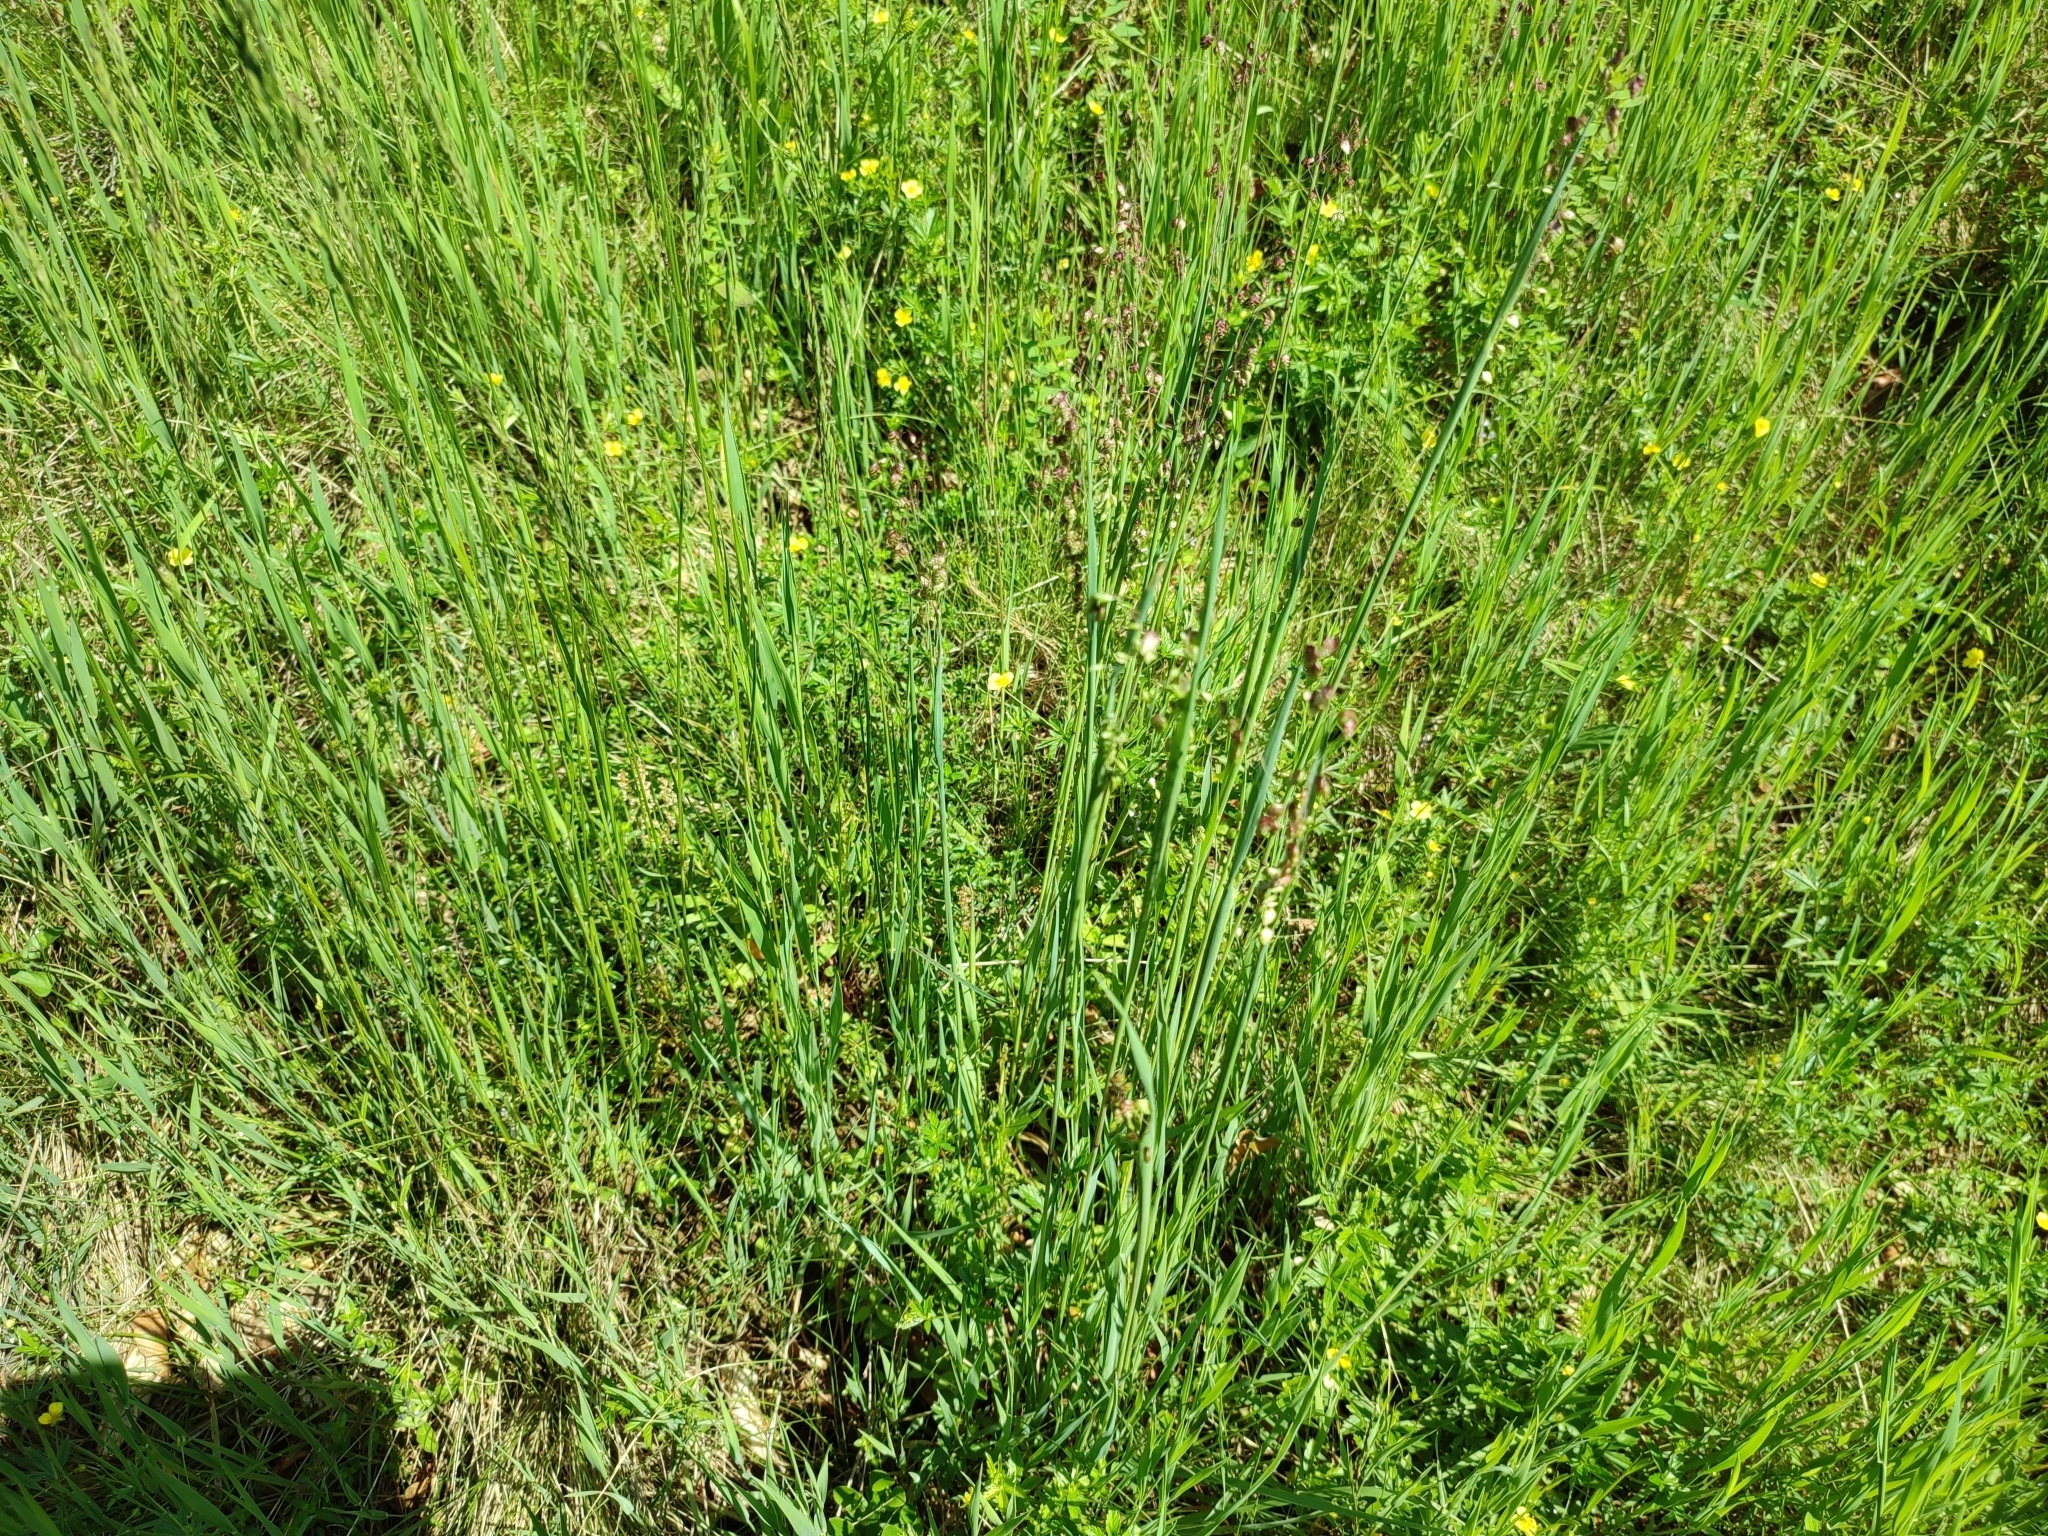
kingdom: Plantae
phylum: Tracheophyta
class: Liliopsida
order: Poales
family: Poaceae
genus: Briza
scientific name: Briza media
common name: Quaking grass
